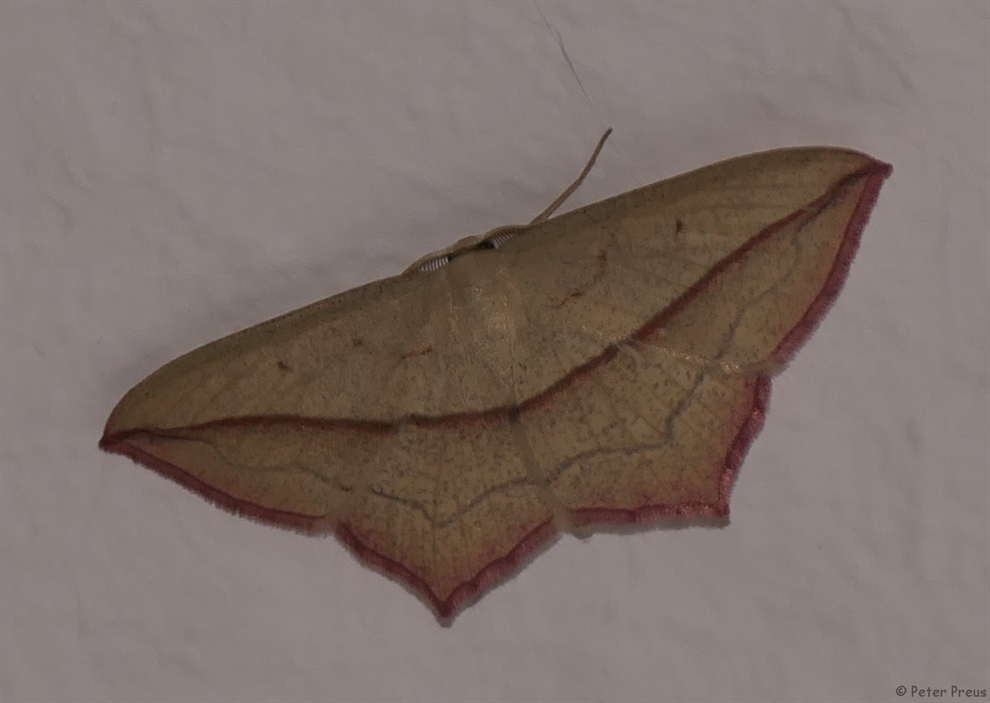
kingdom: Animalia
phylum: Arthropoda
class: Insecta
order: Lepidoptera
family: Geometridae
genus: Timandra
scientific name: Timandra comae
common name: Blood-vein
